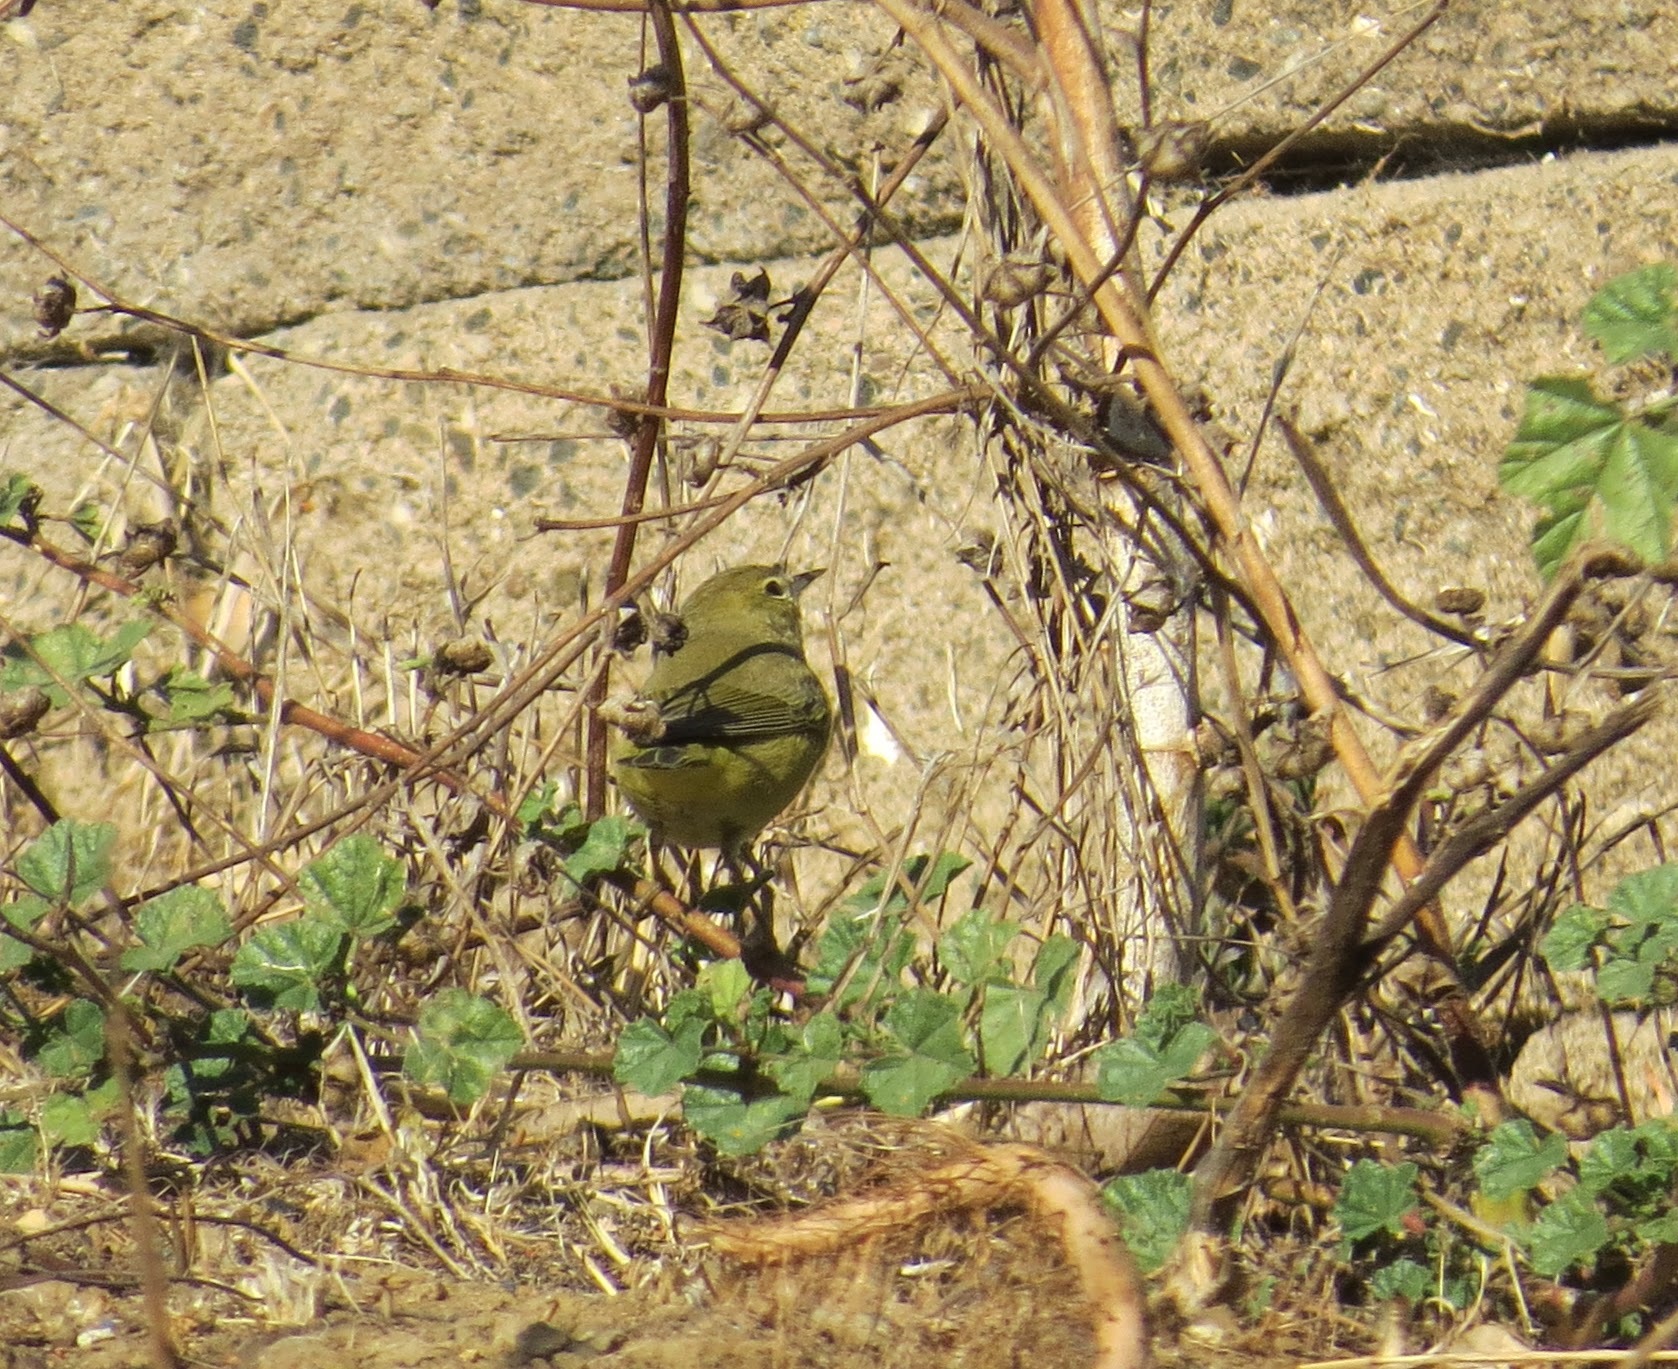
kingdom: Animalia
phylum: Chordata
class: Aves
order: Passeriformes
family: Parulidae
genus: Leiothlypis
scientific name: Leiothlypis celata
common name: Orange-crowned warbler
